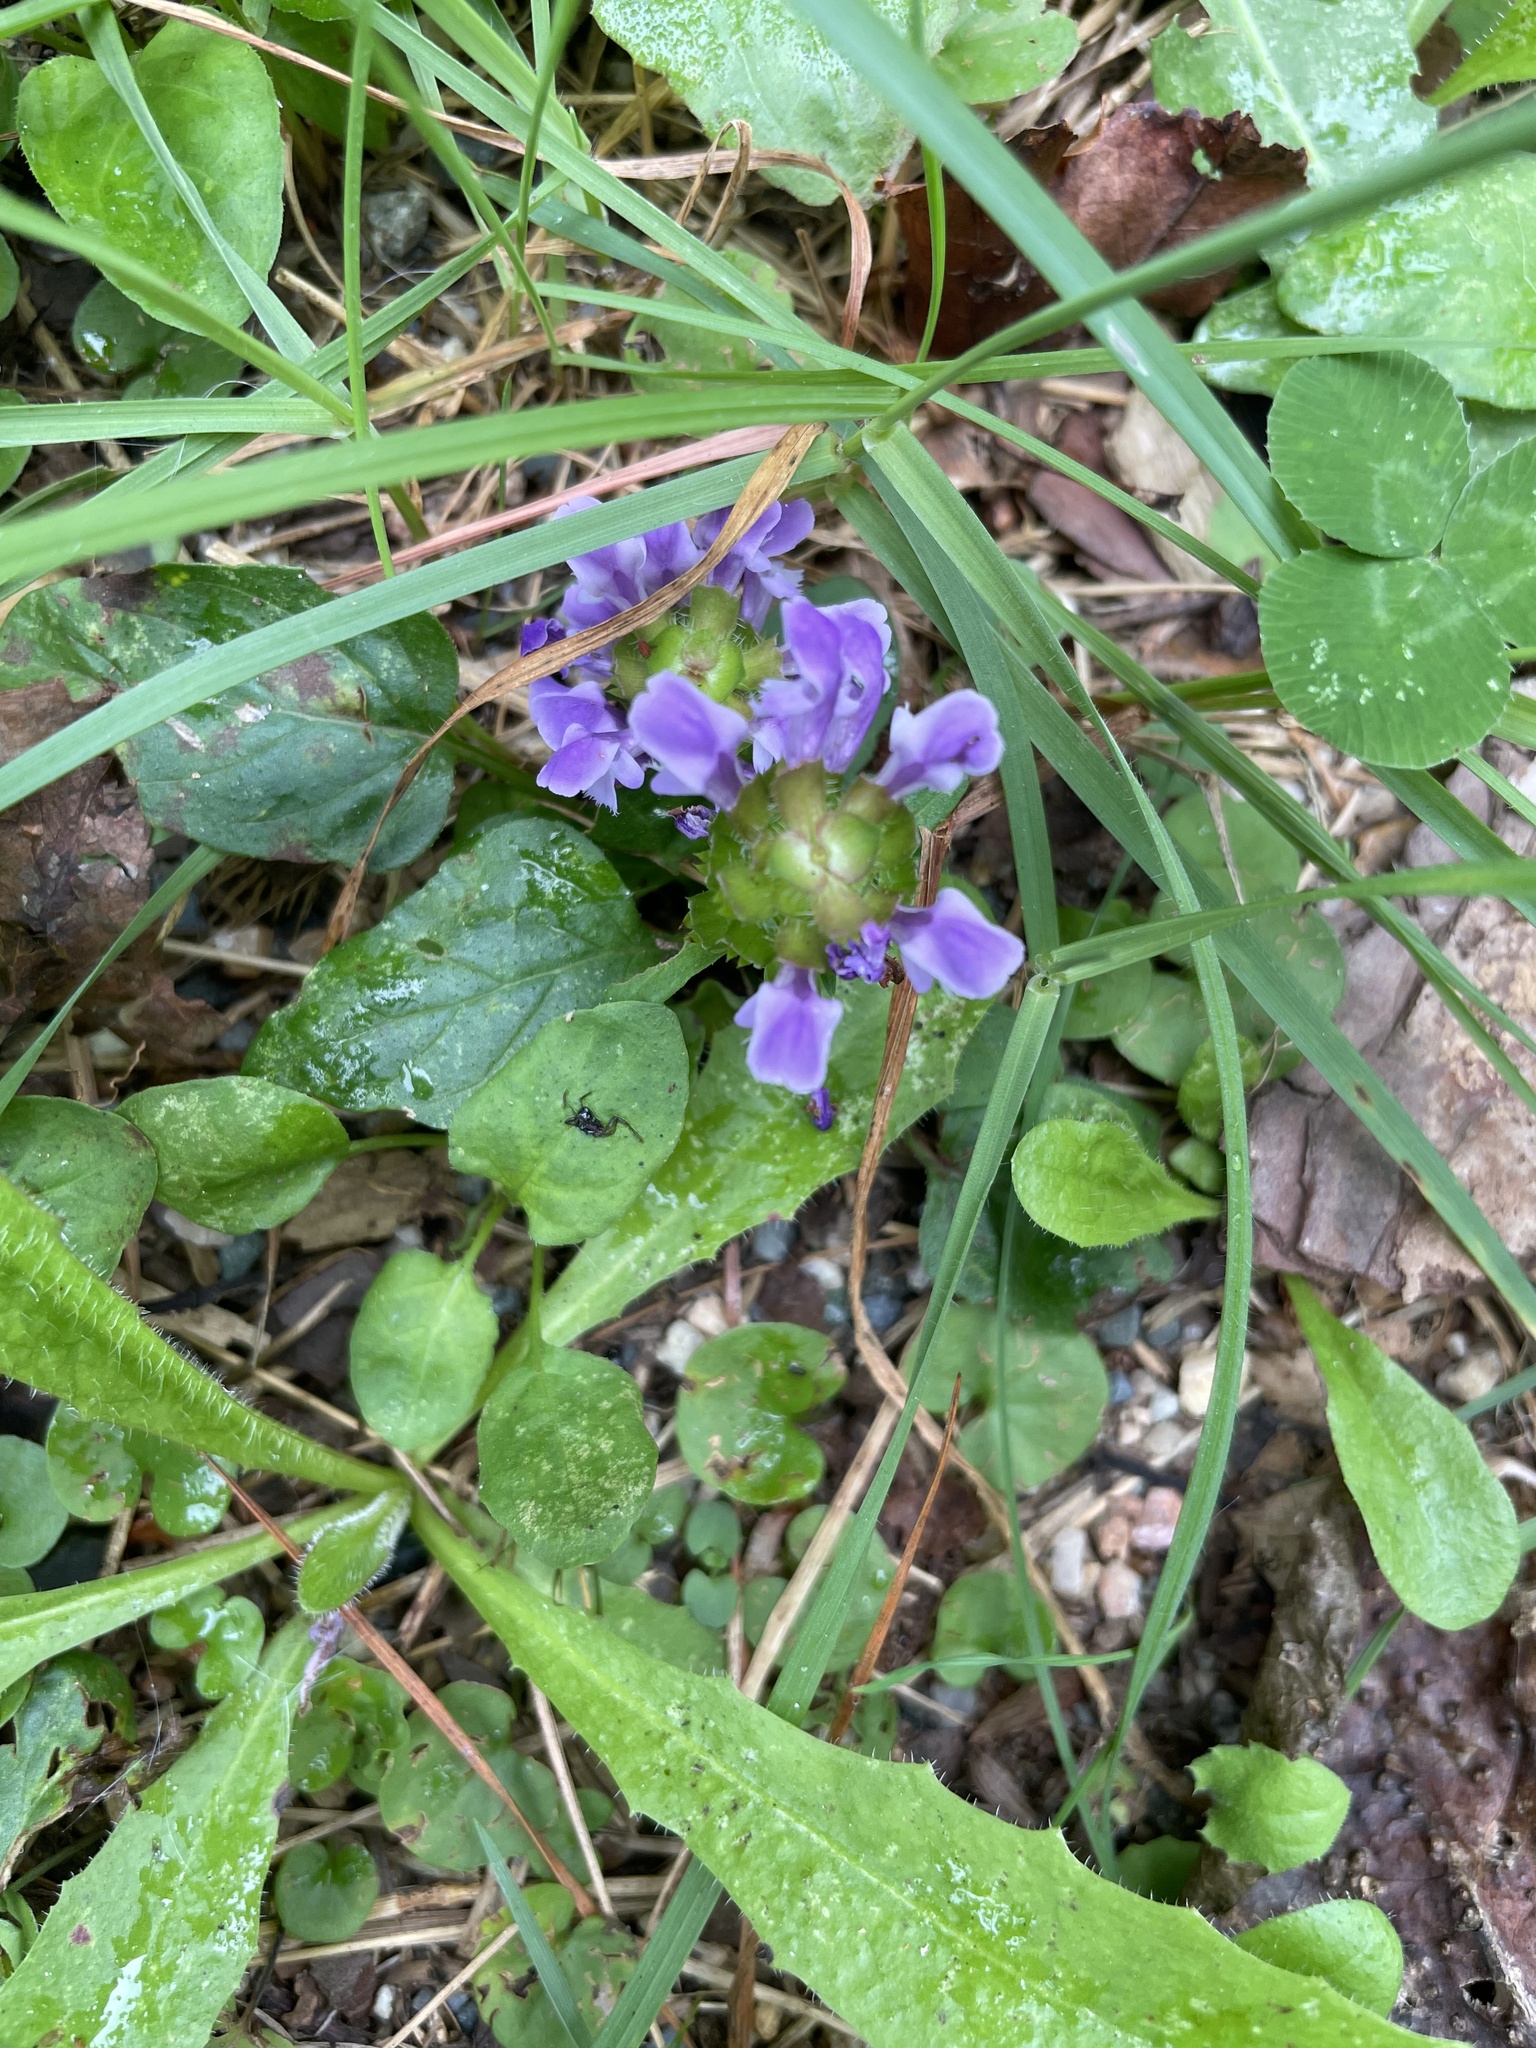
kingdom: Plantae
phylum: Tracheophyta
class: Magnoliopsida
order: Lamiales
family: Lamiaceae
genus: Prunella
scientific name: Prunella vulgaris
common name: Heal-all
